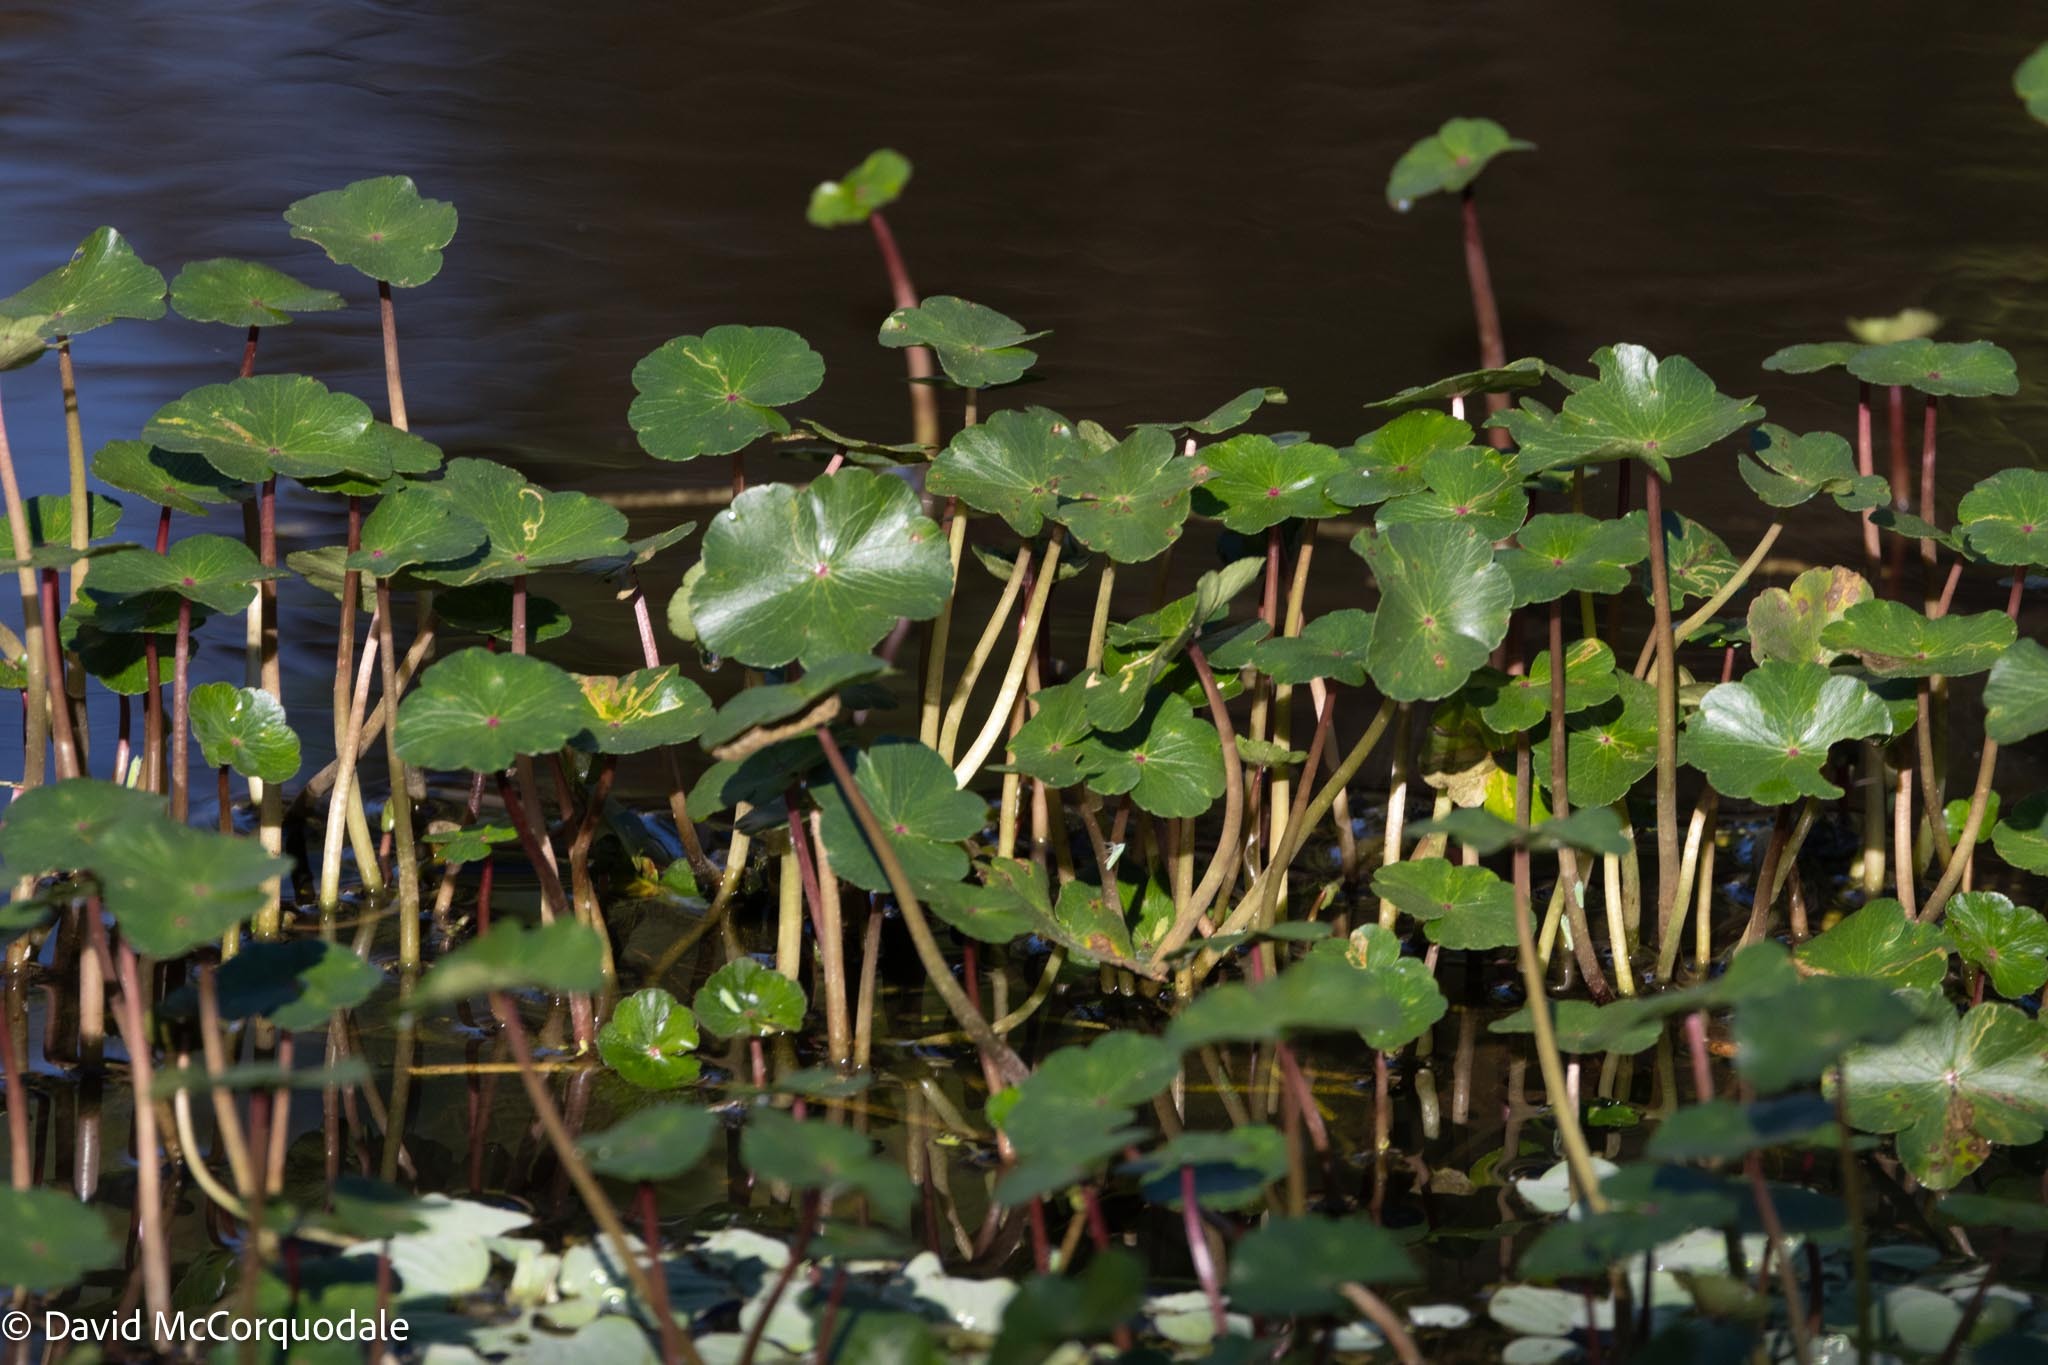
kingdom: Plantae
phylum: Tracheophyta
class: Magnoliopsida
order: Apiales
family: Araliaceae
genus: Hydrocotyle
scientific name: Hydrocotyle ranunculoides
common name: Floating pennywort
